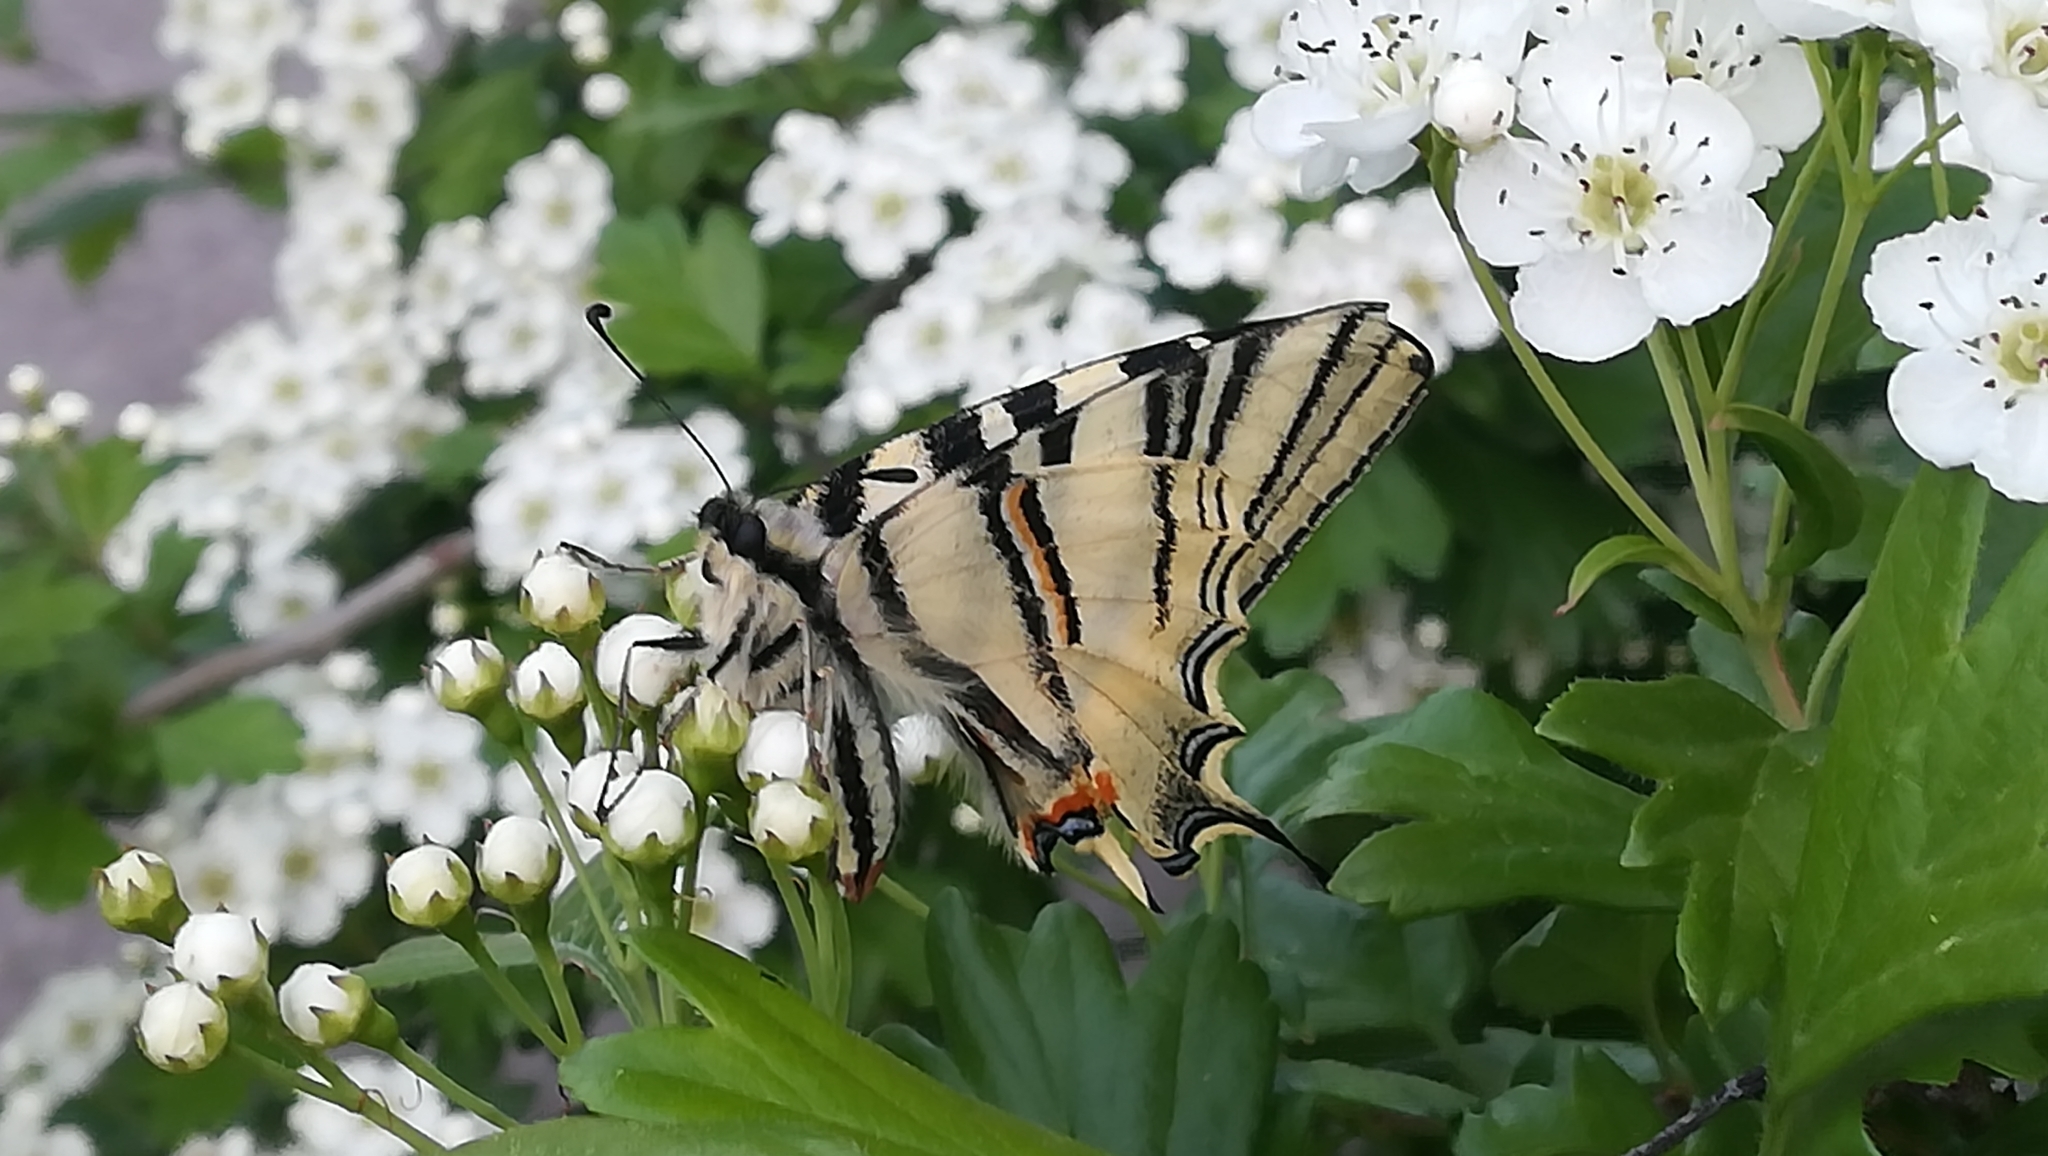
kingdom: Animalia
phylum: Arthropoda
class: Insecta
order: Lepidoptera
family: Papilionidae
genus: Iphiclides
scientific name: Iphiclides podalirius
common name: Scarce swallowtail
